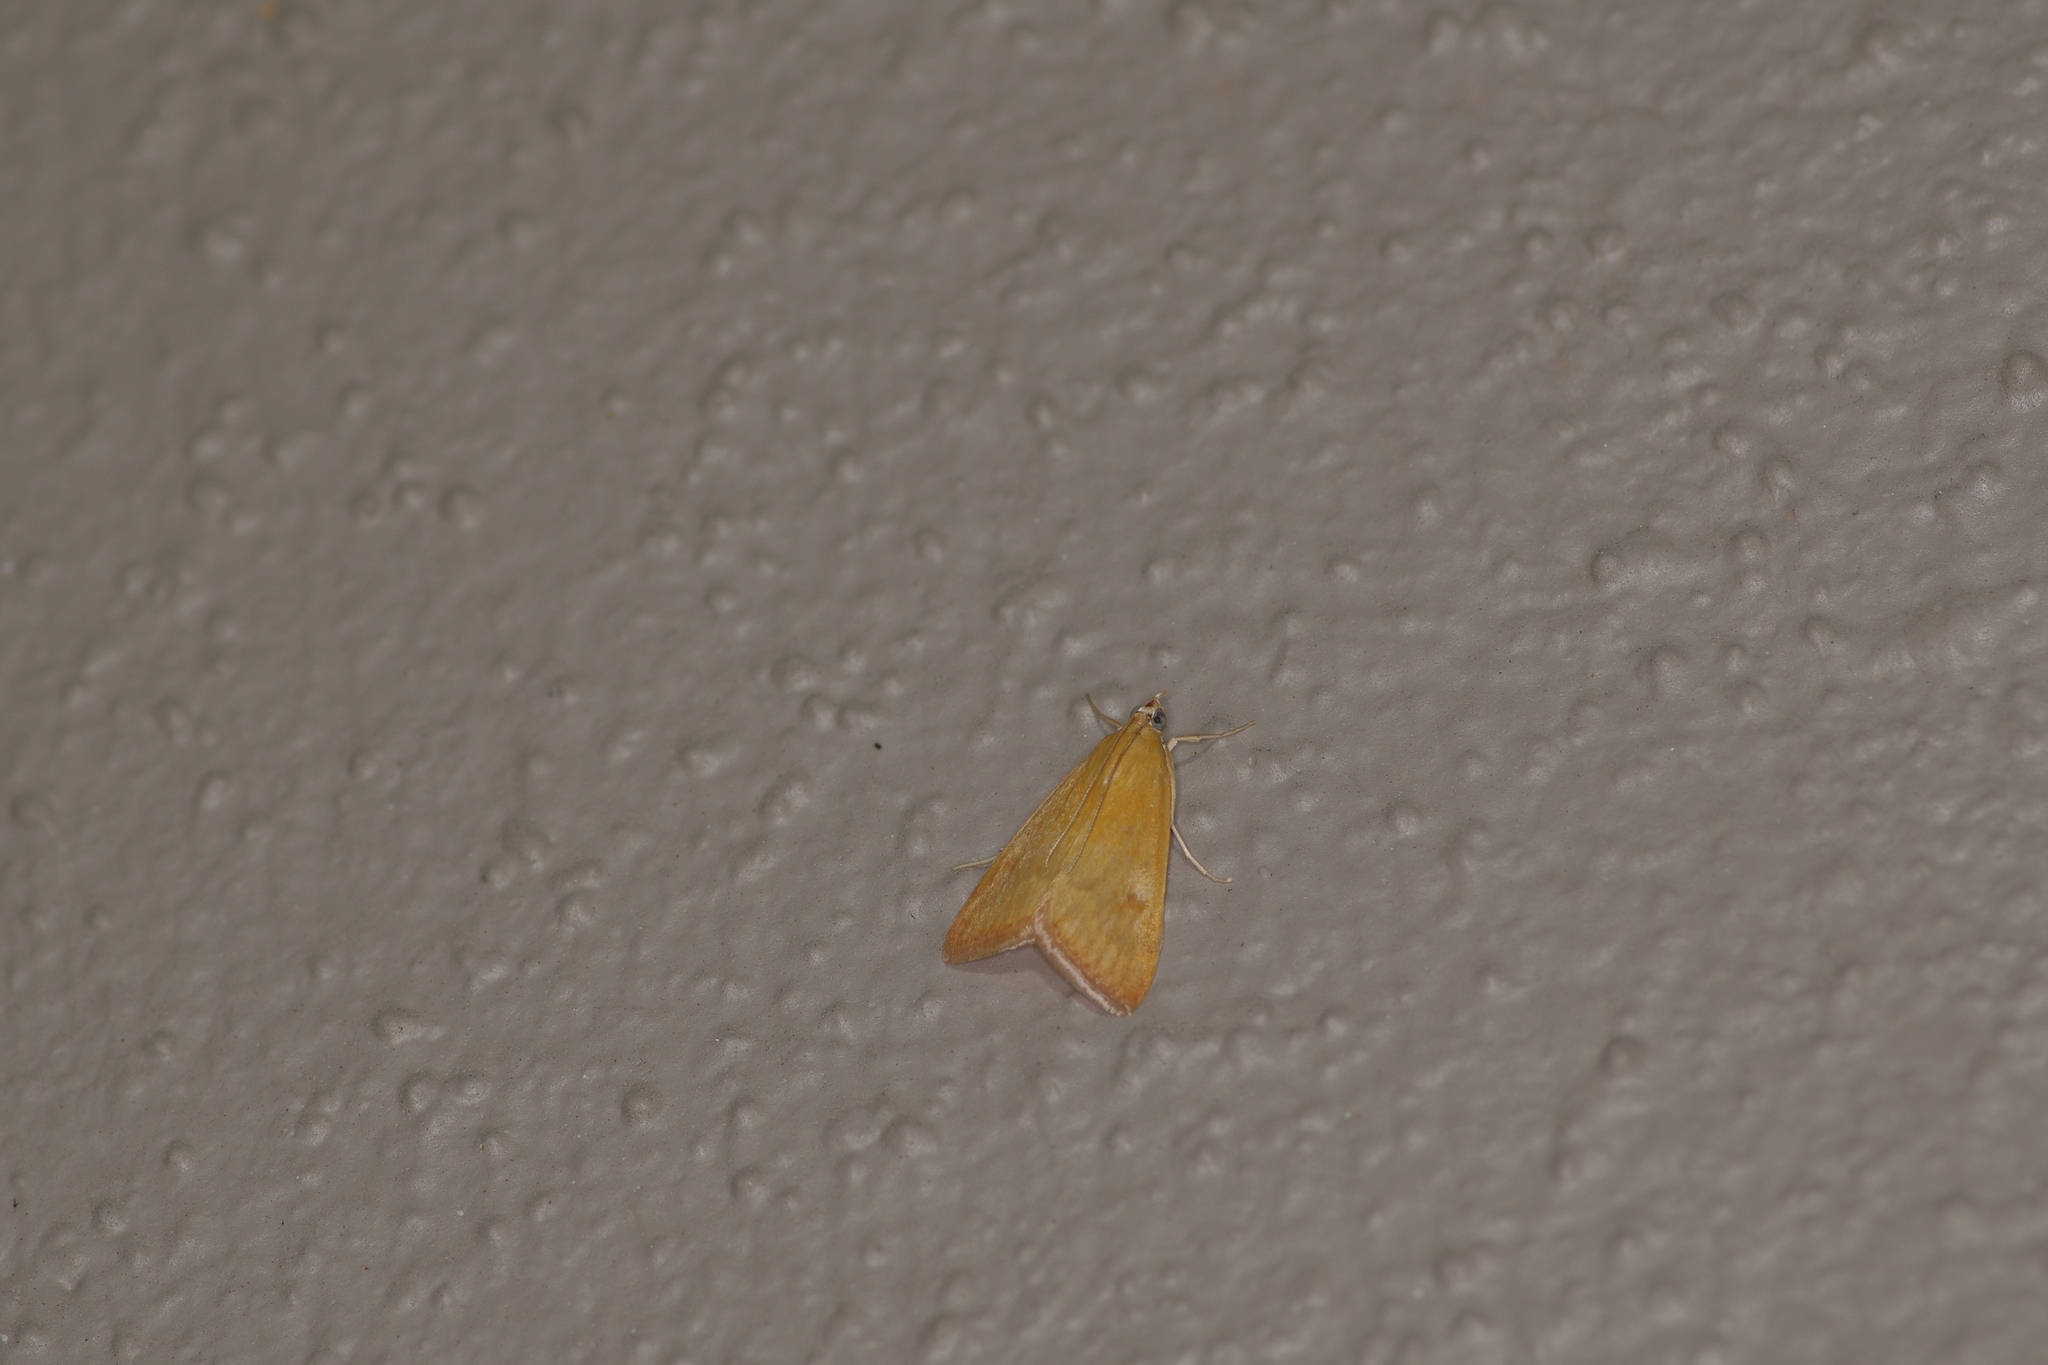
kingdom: Animalia
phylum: Arthropoda
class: Insecta
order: Lepidoptera
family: Crambidae
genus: Achyra
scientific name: Achyra rantalis
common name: Garden webworm
